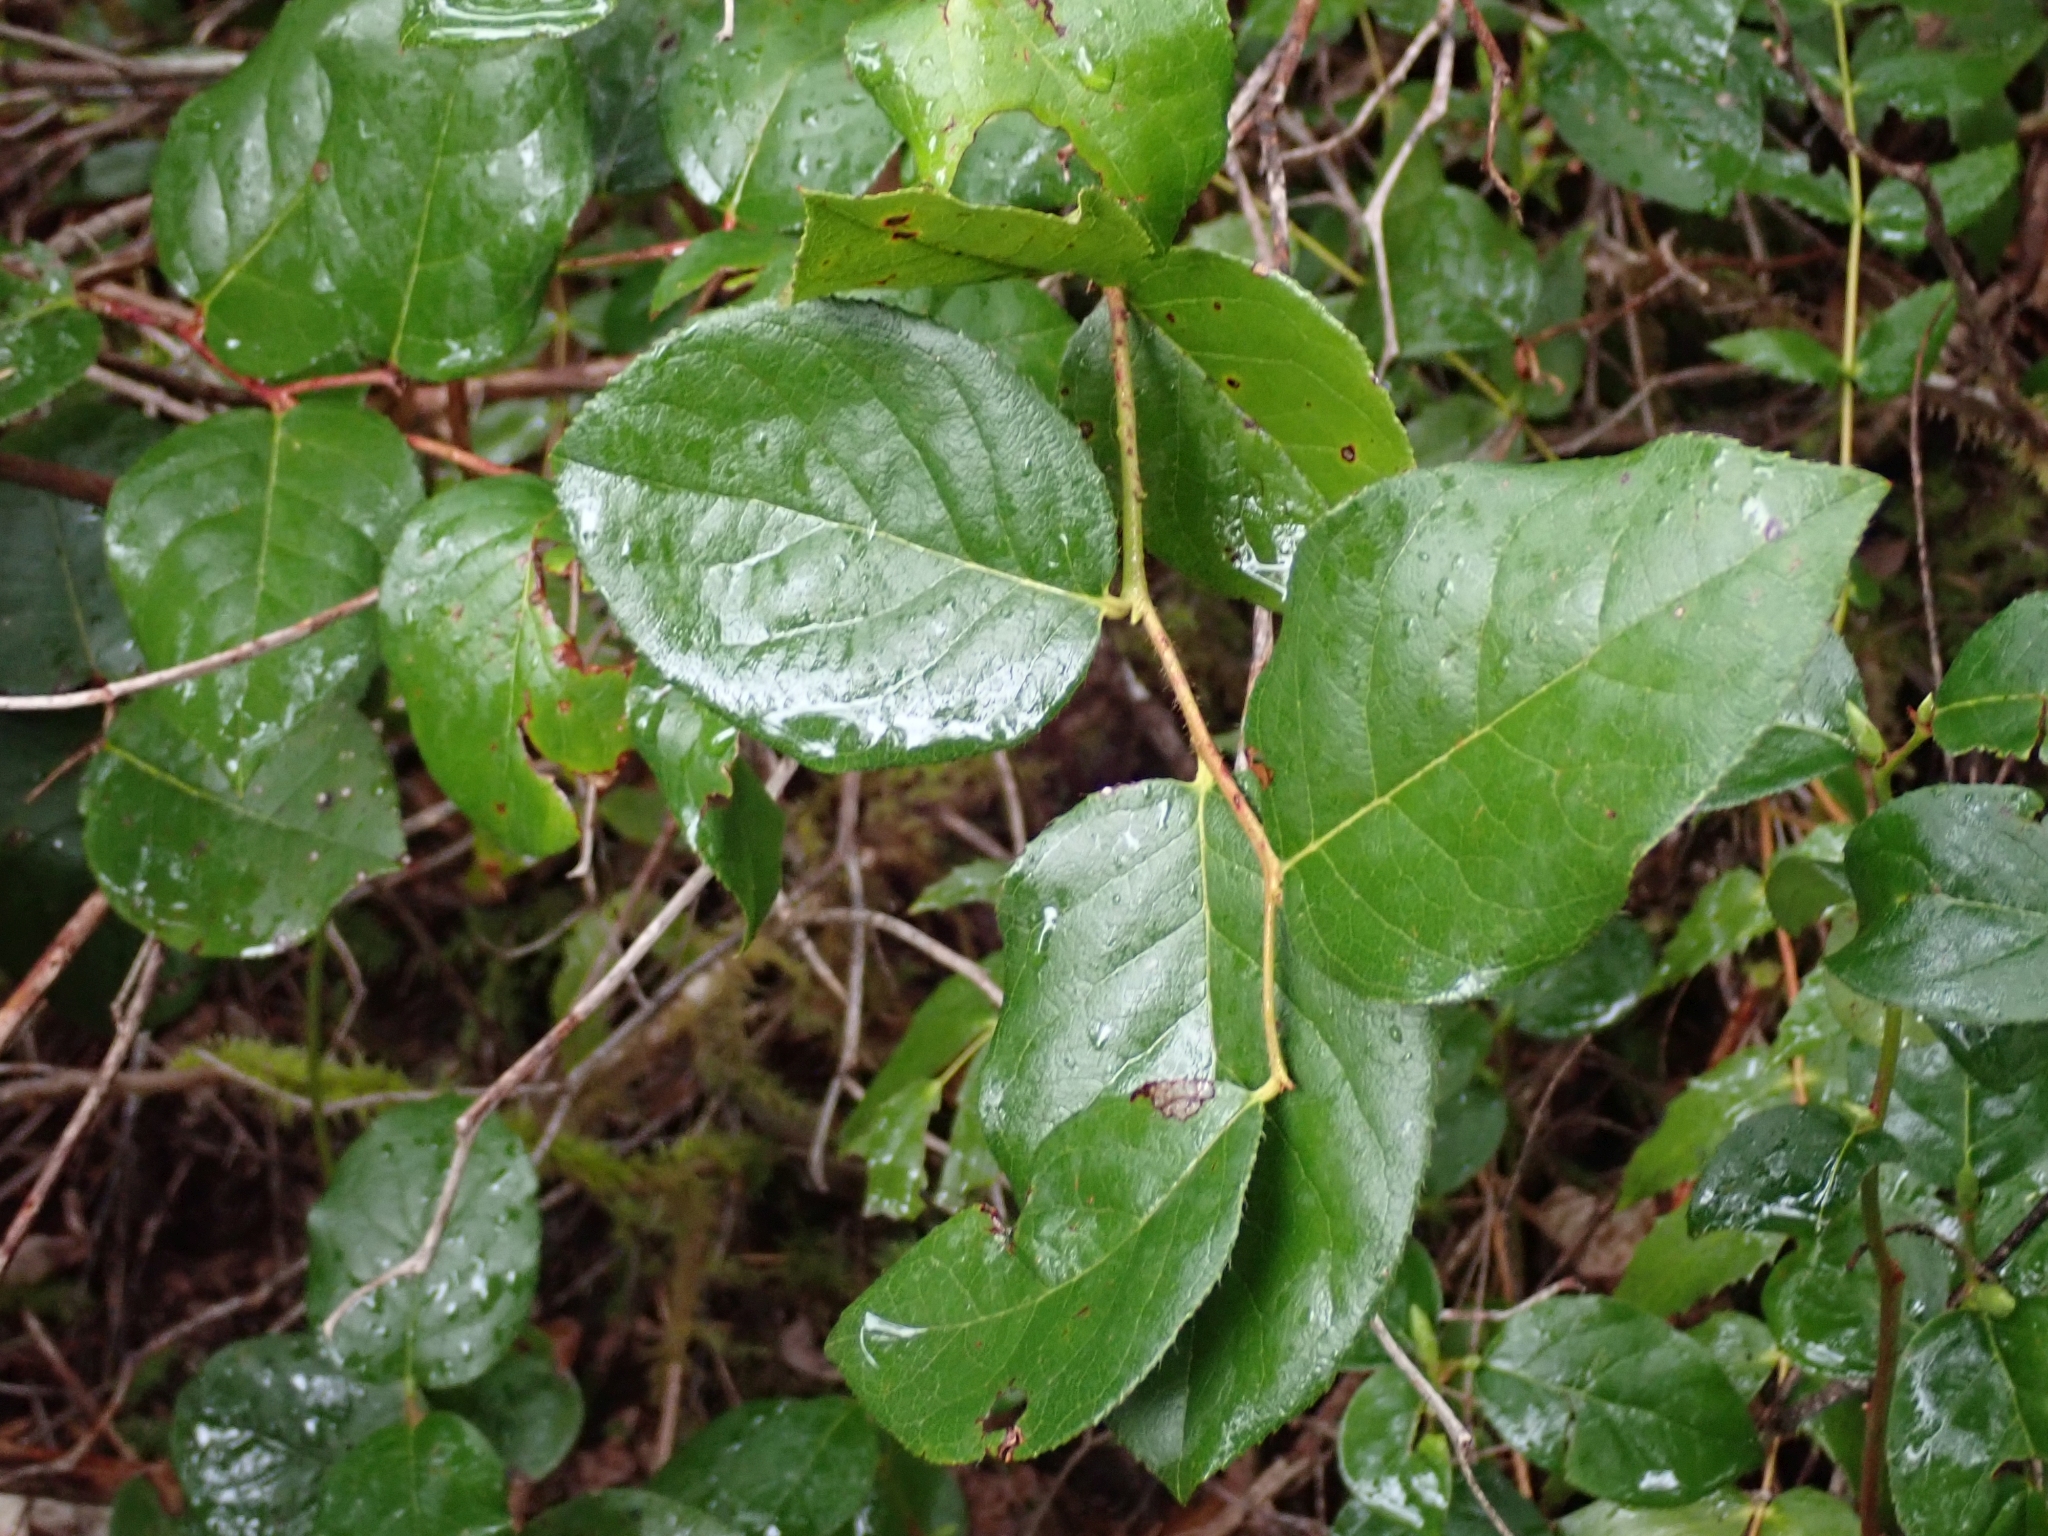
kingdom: Plantae
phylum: Tracheophyta
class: Magnoliopsida
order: Ericales
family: Ericaceae
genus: Gaultheria
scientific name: Gaultheria shallon
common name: Shallon
